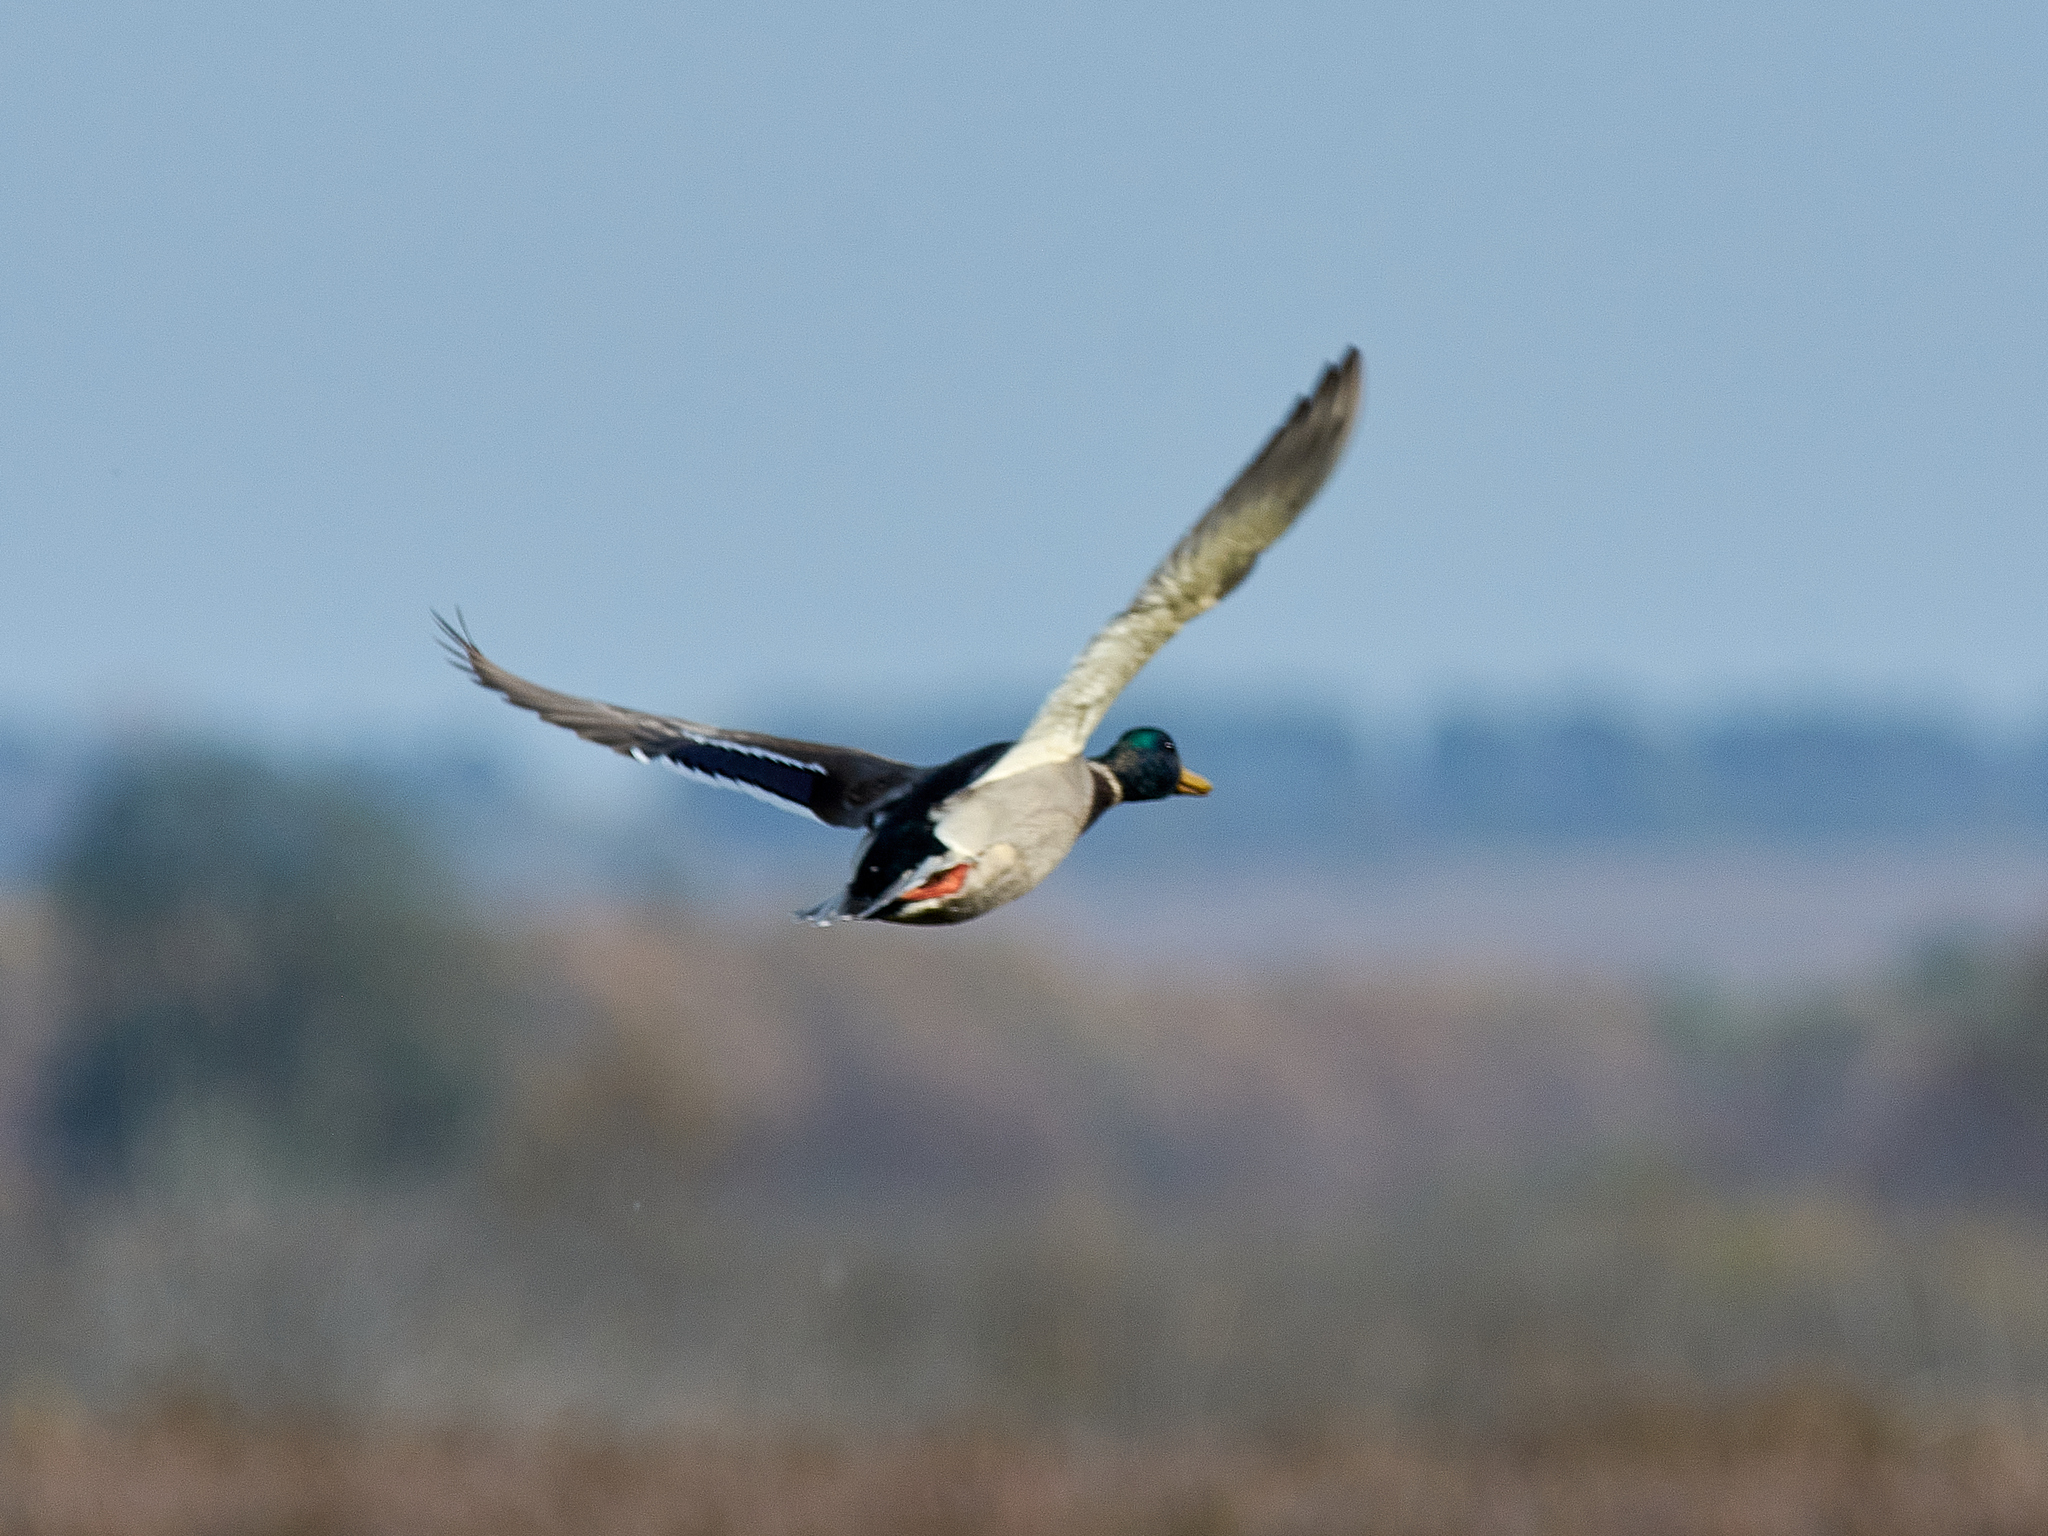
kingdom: Animalia
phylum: Chordata
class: Aves
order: Anseriformes
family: Anatidae
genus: Anas
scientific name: Anas platyrhynchos
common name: Mallard
